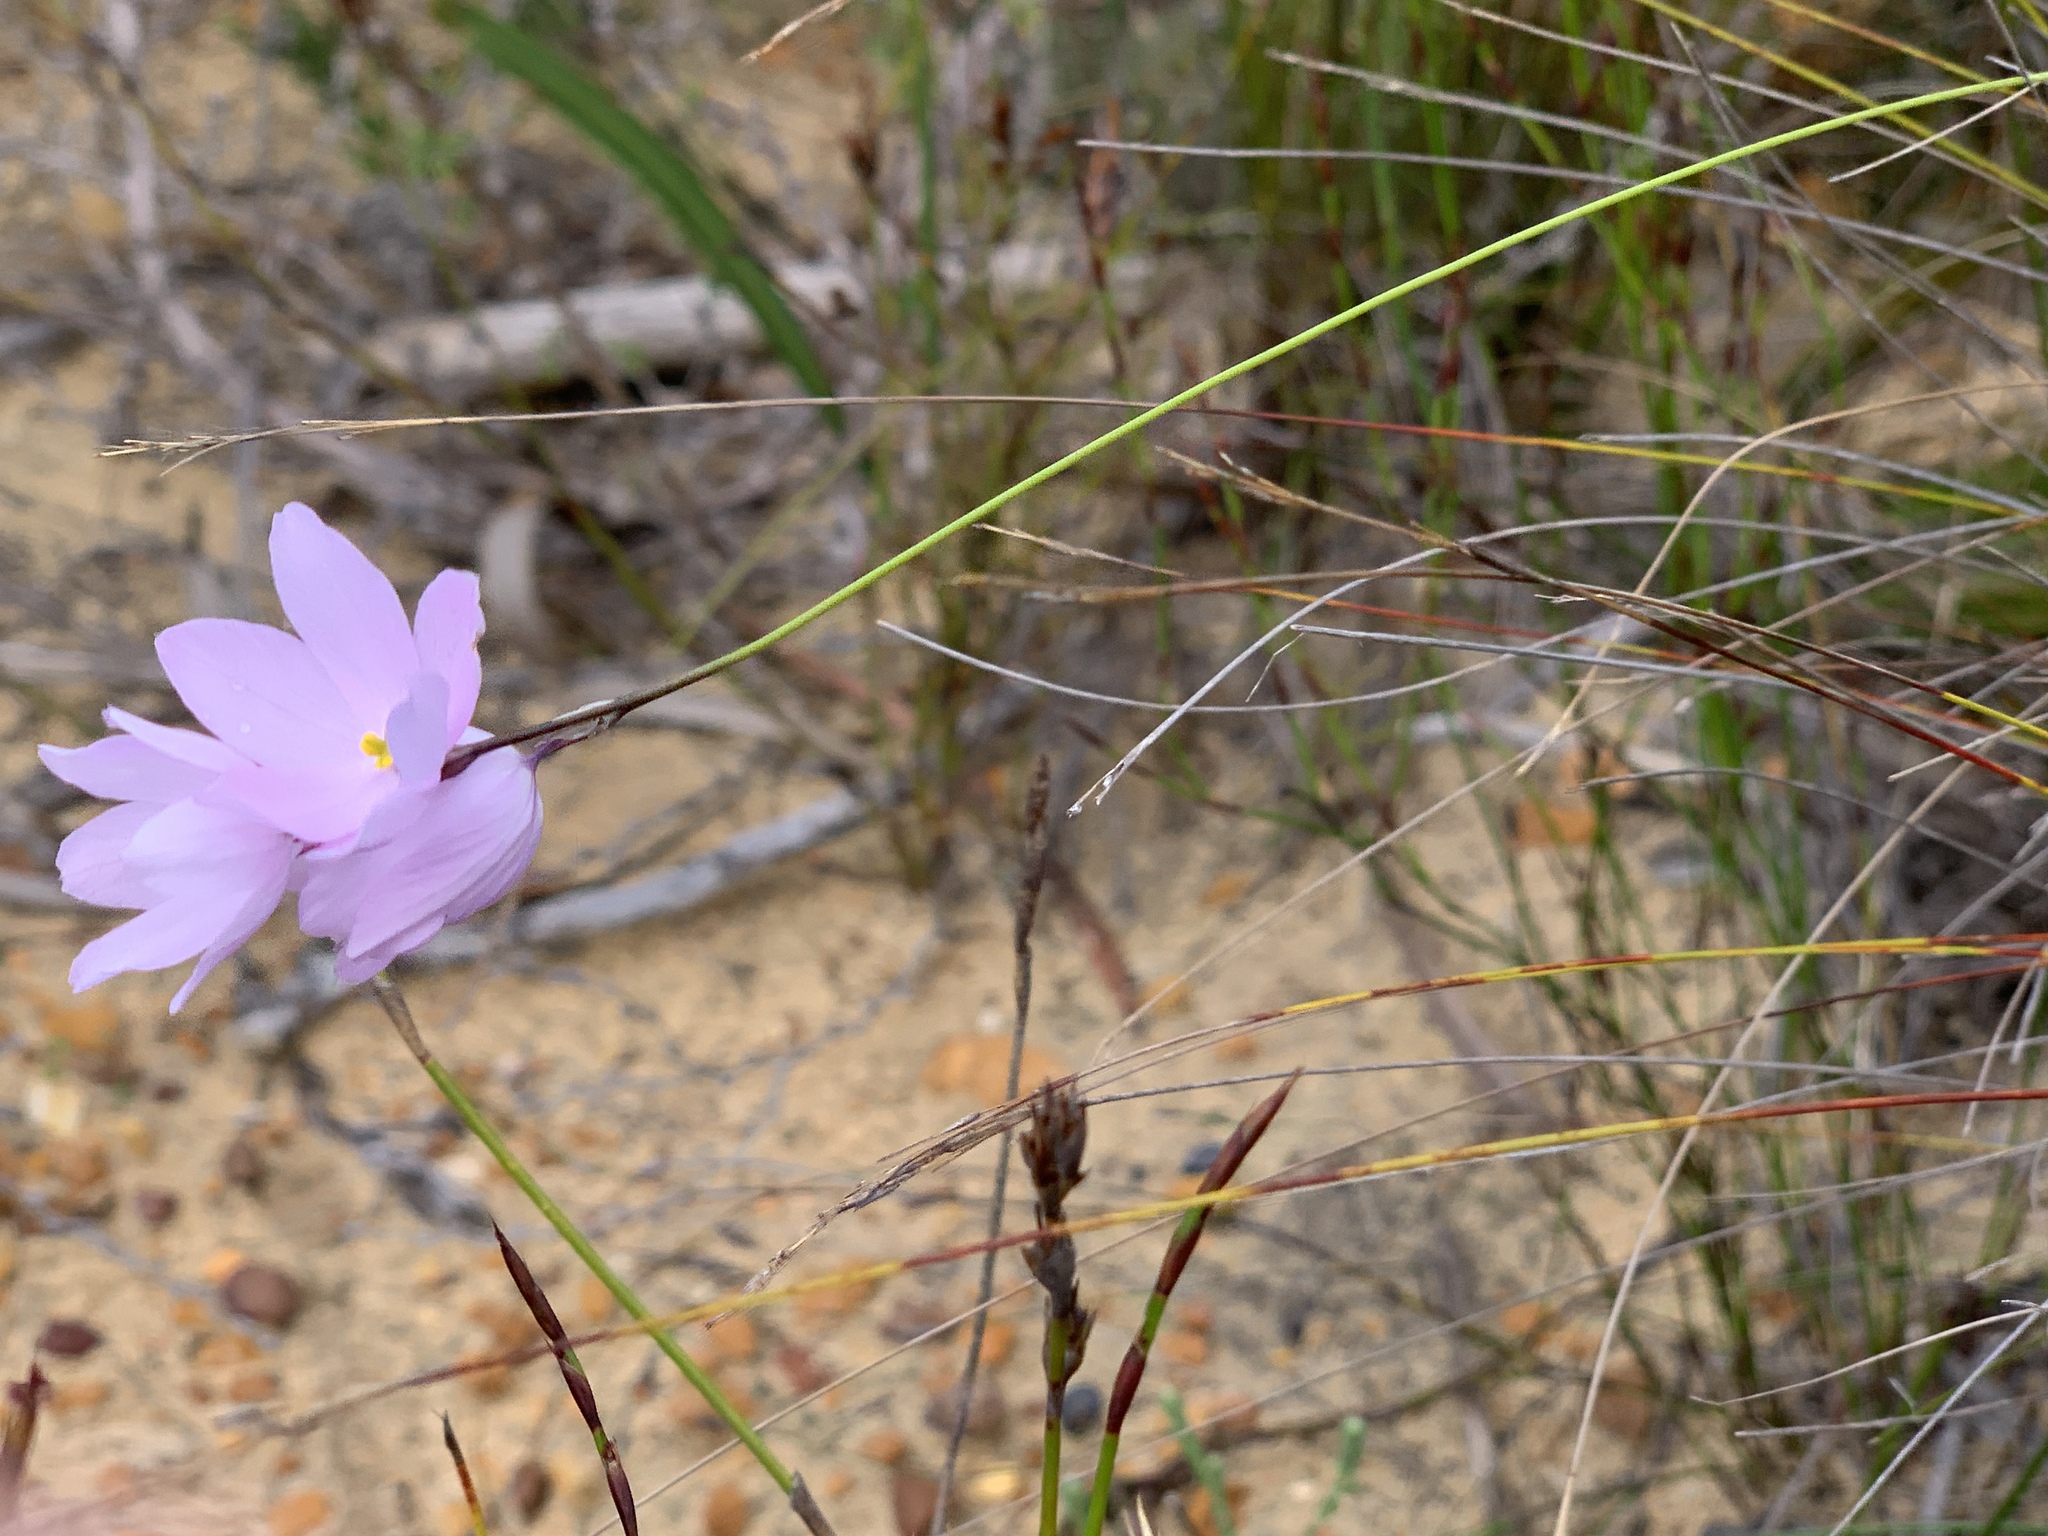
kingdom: Plantae
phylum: Tracheophyta
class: Liliopsida
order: Asparagales
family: Iridaceae
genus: Ixia
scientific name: Ixia micrandra
